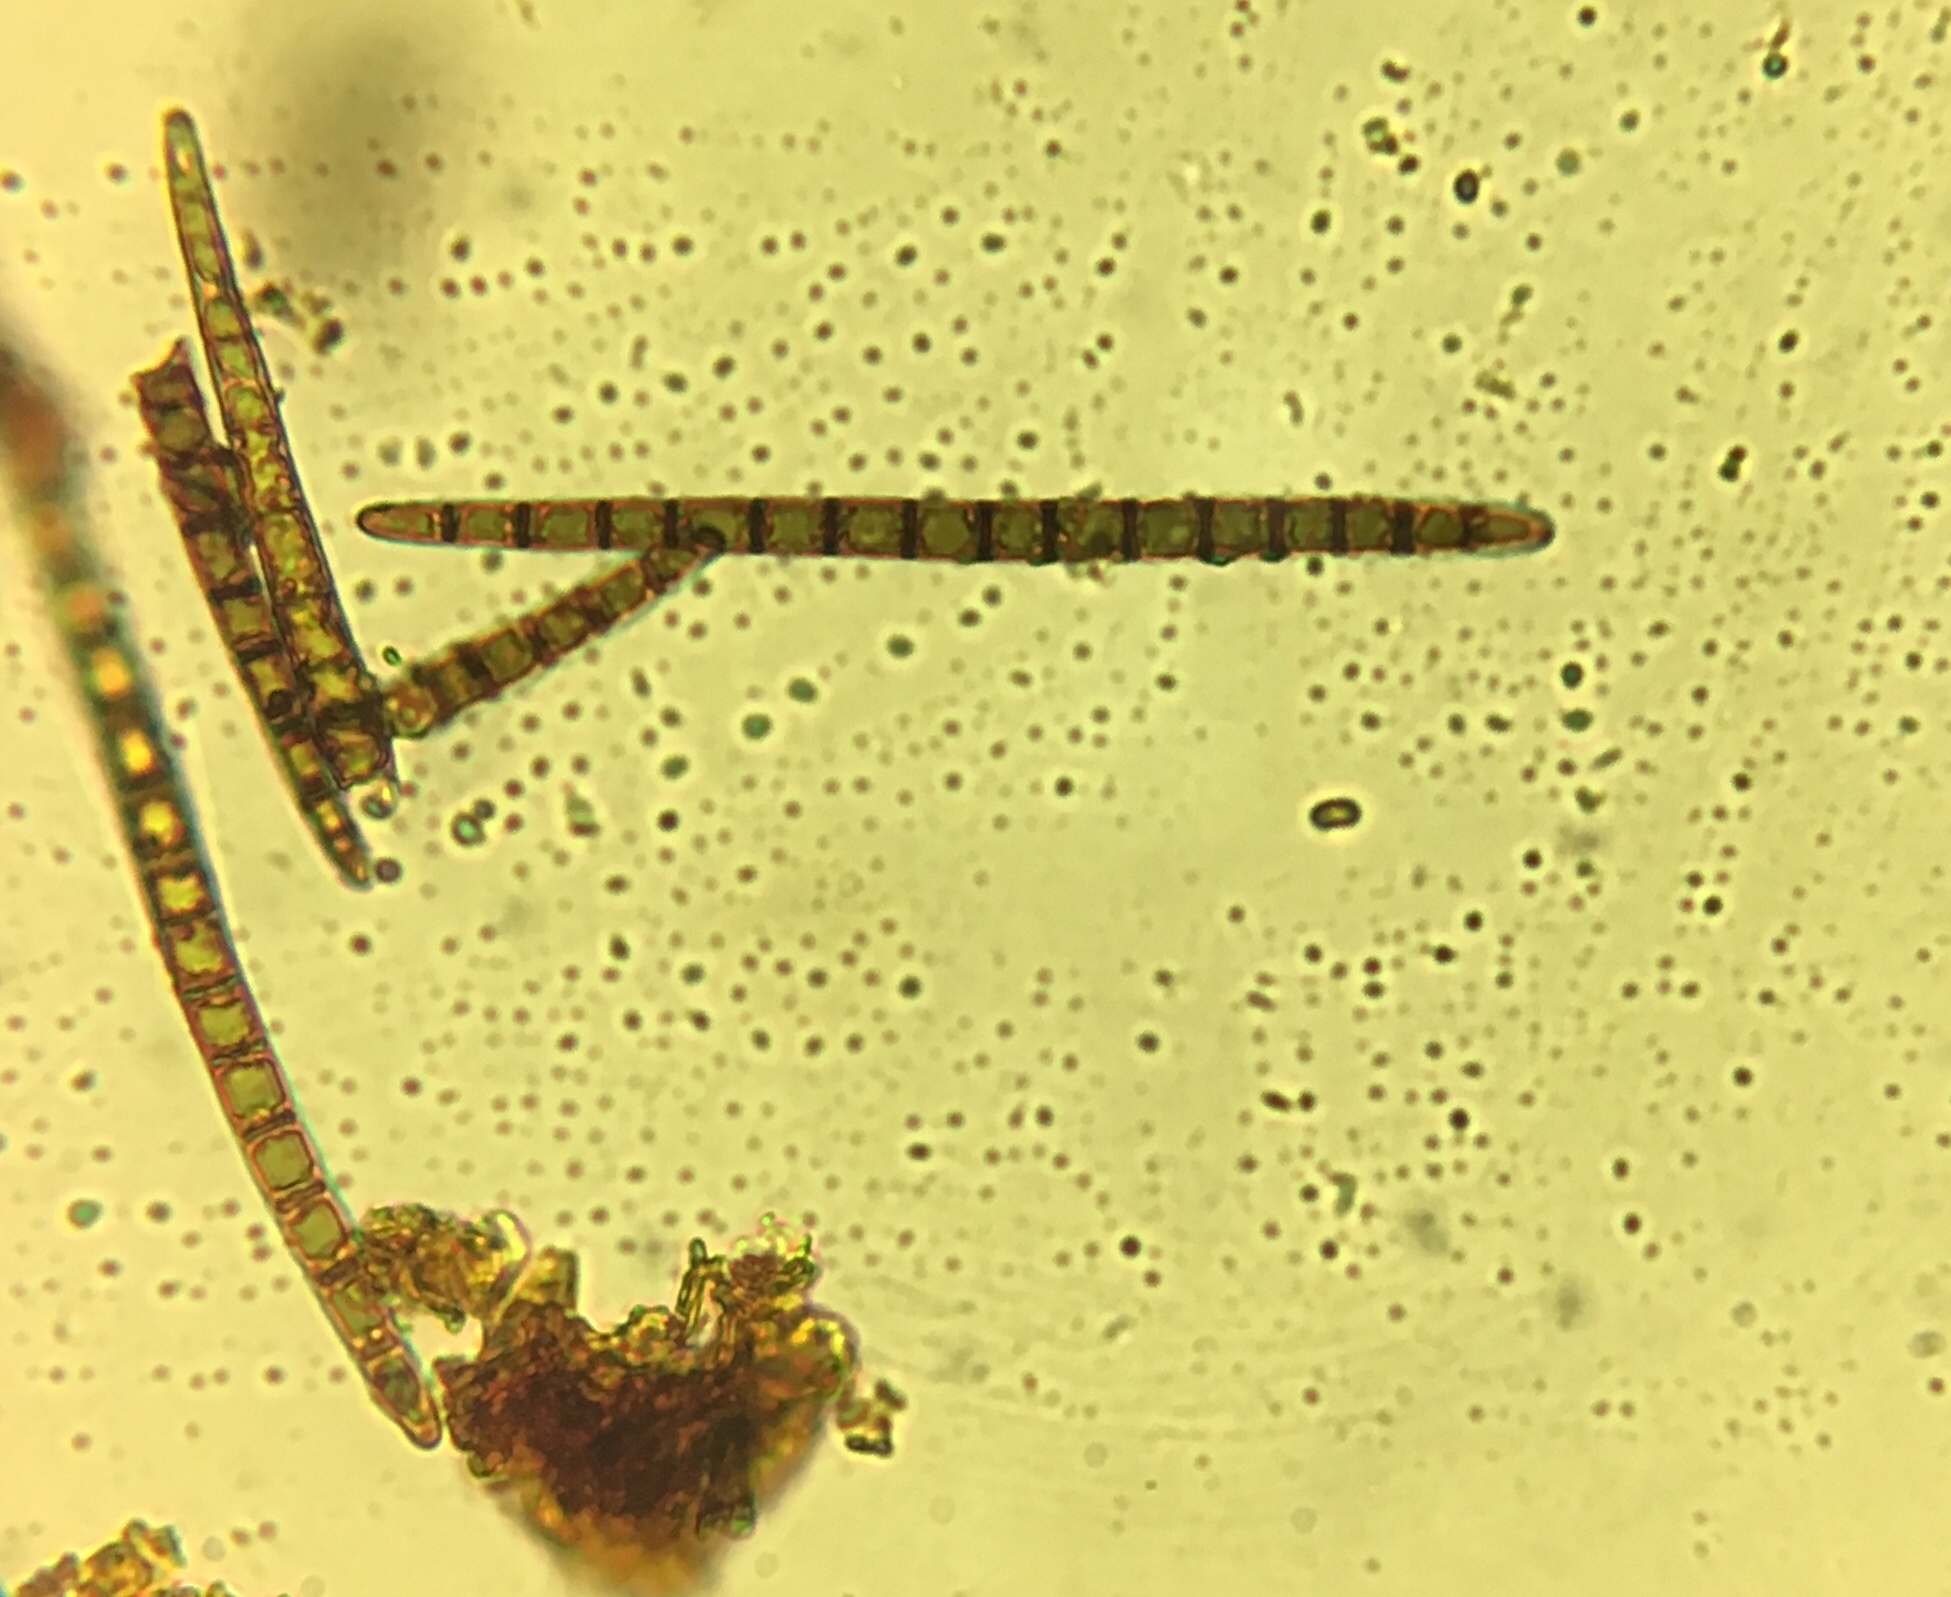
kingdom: Fungi
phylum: Ascomycota
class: Geoglossomycetes
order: Geoglossales
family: Geoglossaceae
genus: Geoglossum
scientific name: Geoglossum difforme
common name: Slimy earthtongue
